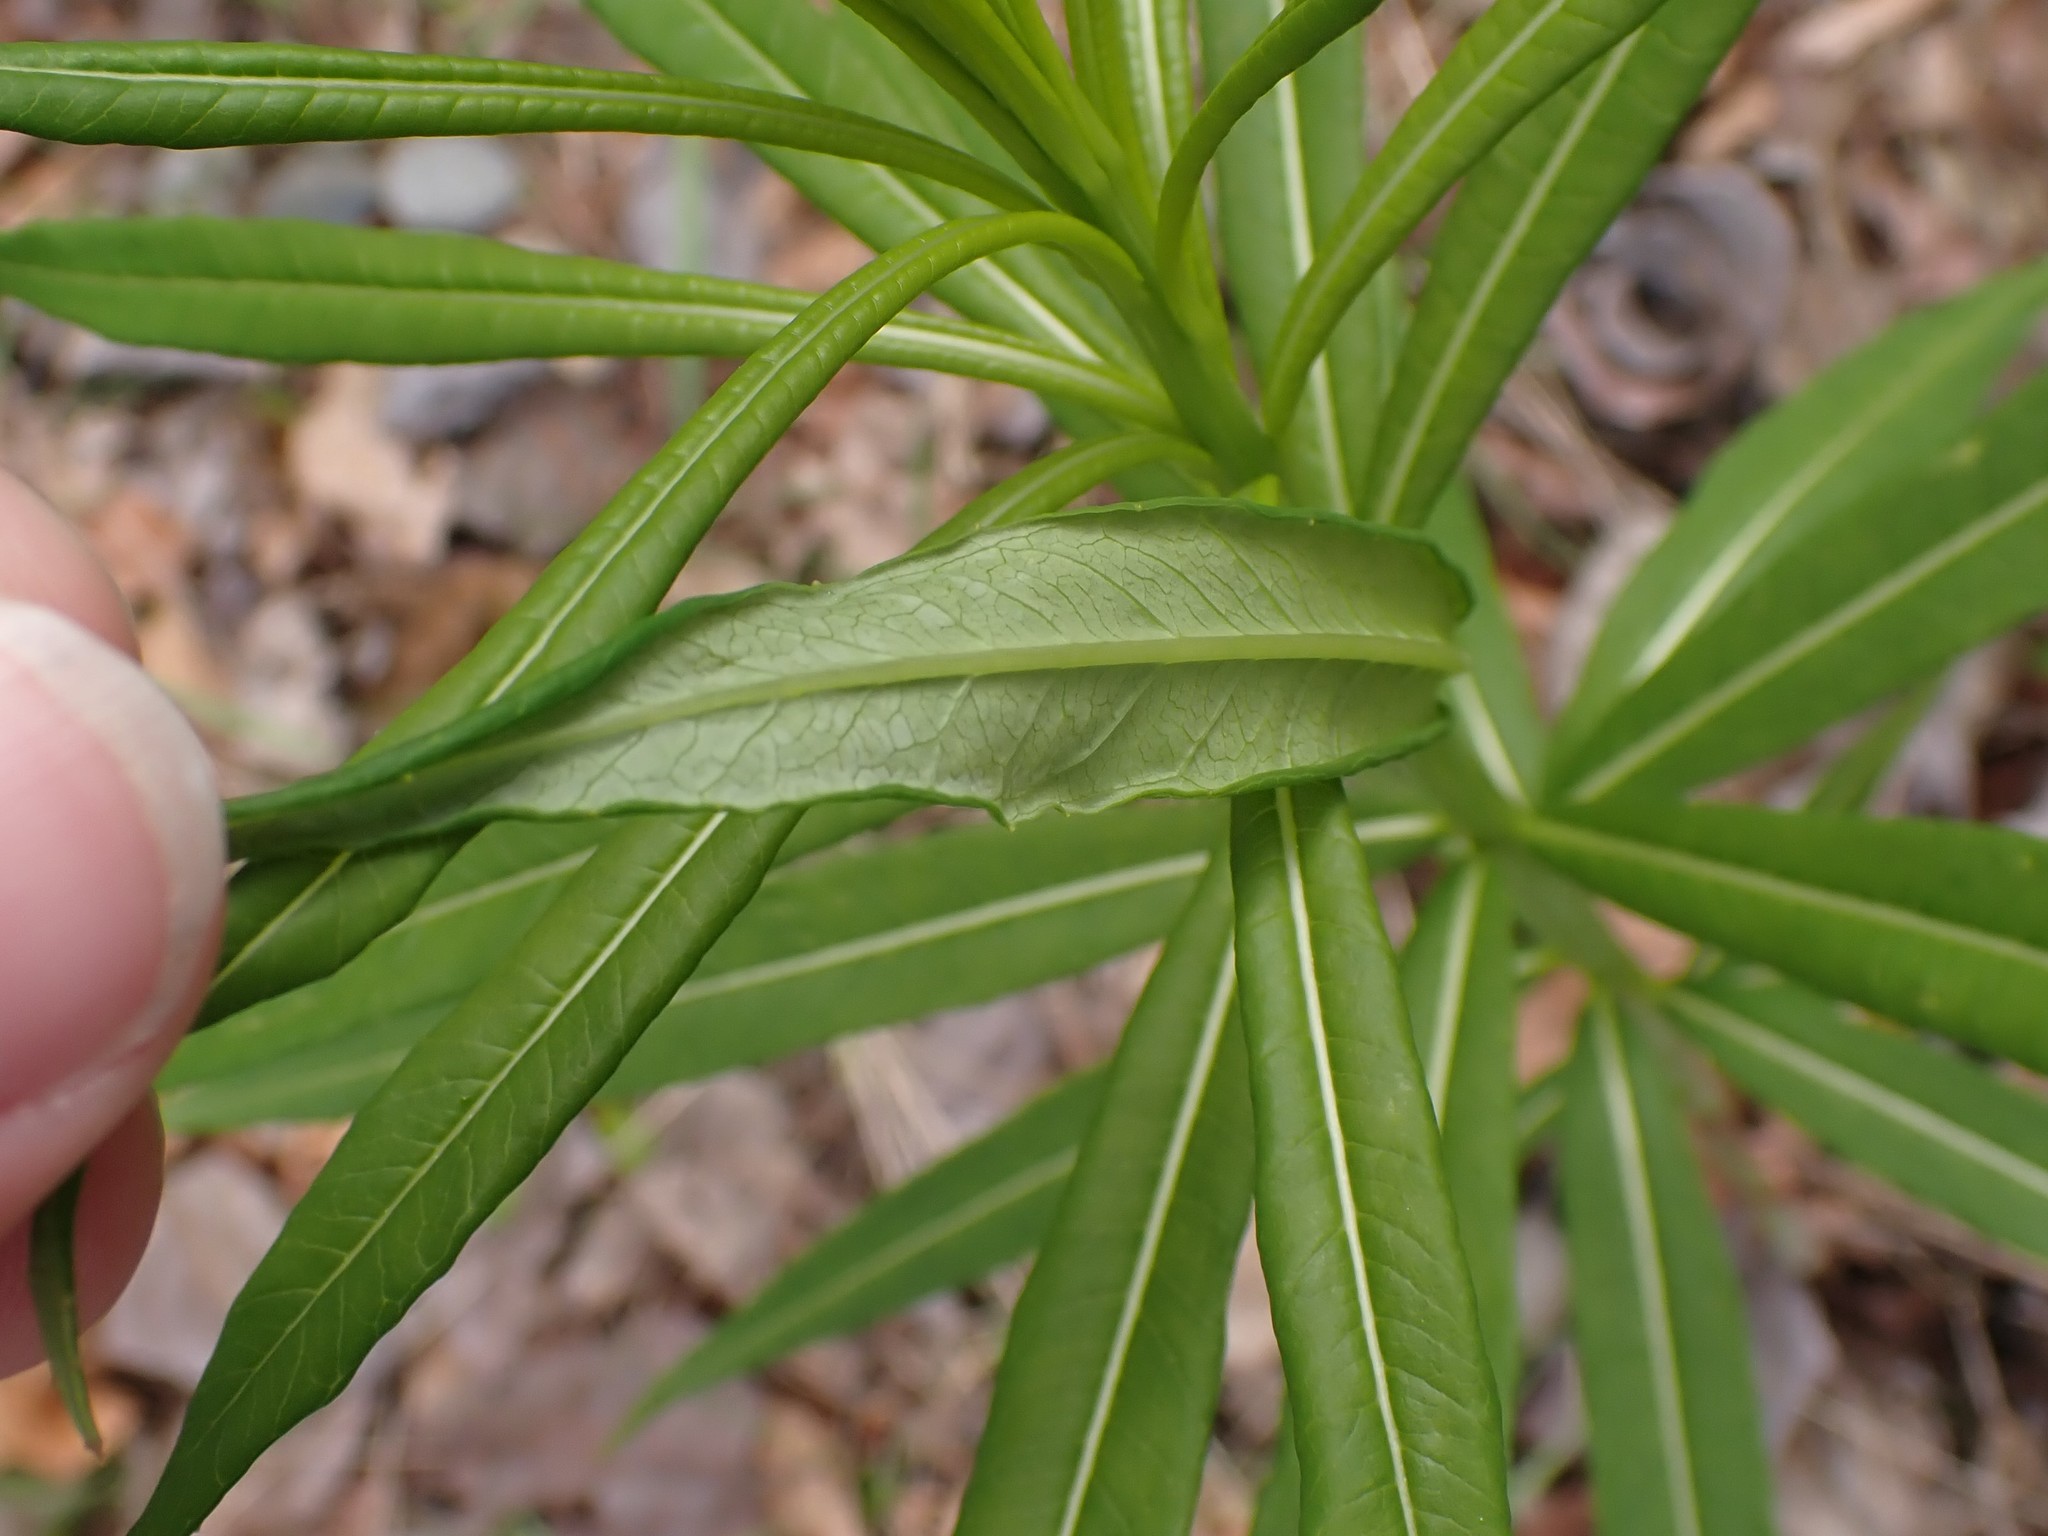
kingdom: Plantae
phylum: Tracheophyta
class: Magnoliopsida
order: Myrtales
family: Onagraceae
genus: Chamaenerion
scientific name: Chamaenerion angustifolium
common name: Fireweed
